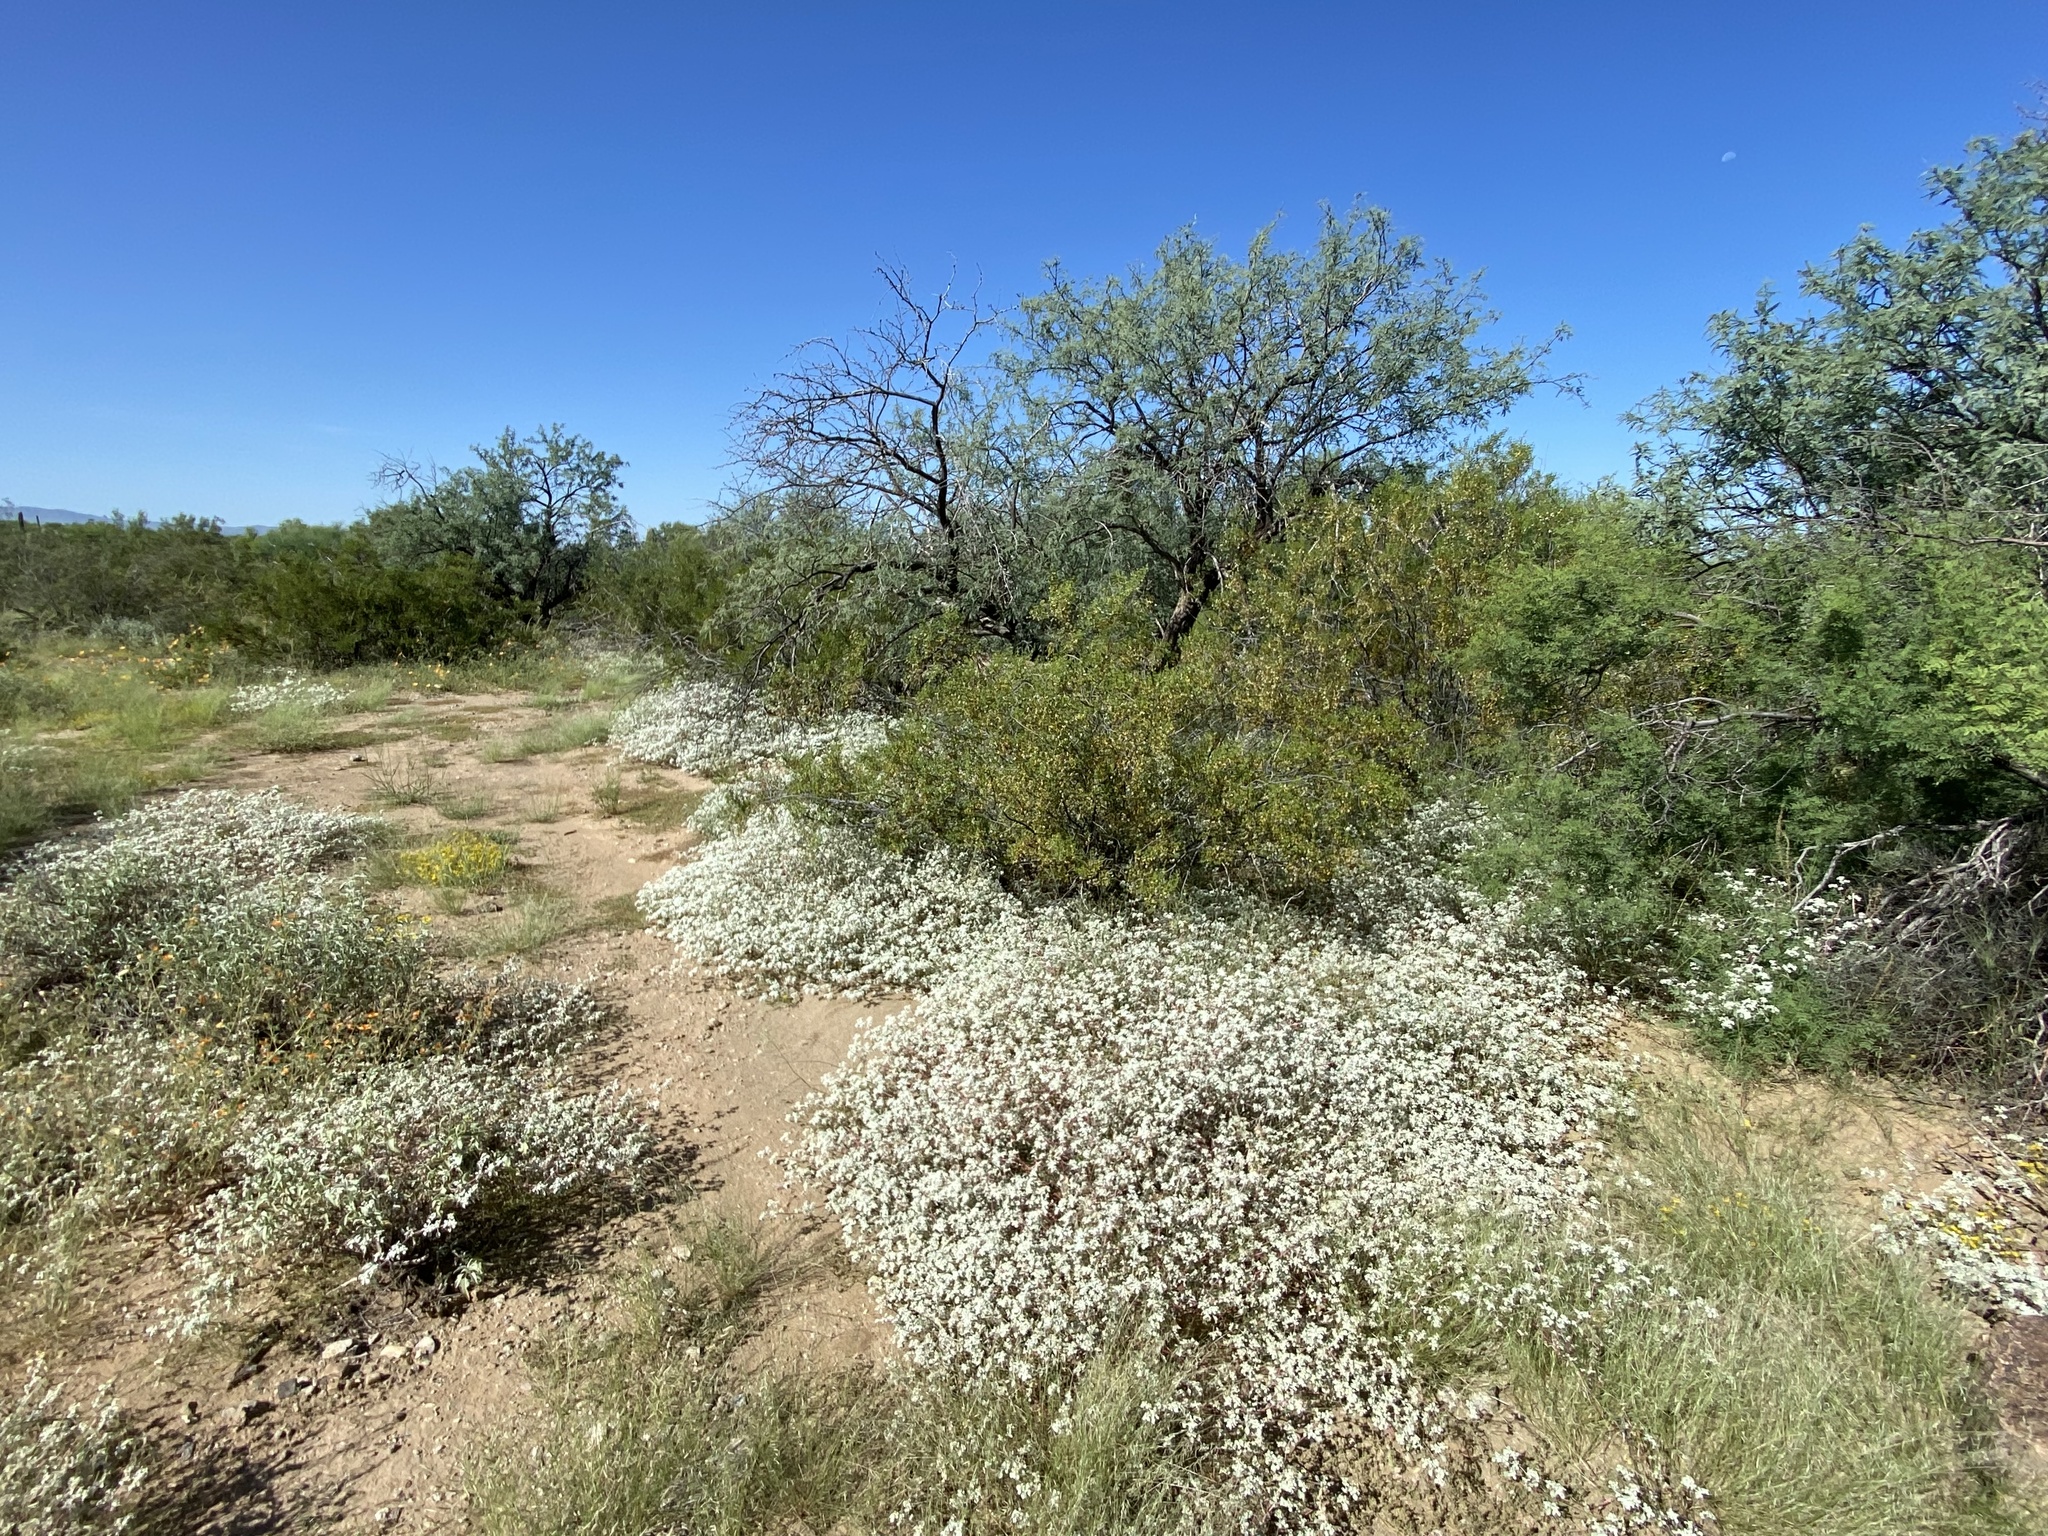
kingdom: Plantae
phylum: Tracheophyta
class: Magnoliopsida
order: Caryophyllales
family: Amaranthaceae
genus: Tidestromia
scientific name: Tidestromia lanuginosa
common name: Woolly tidestromia
